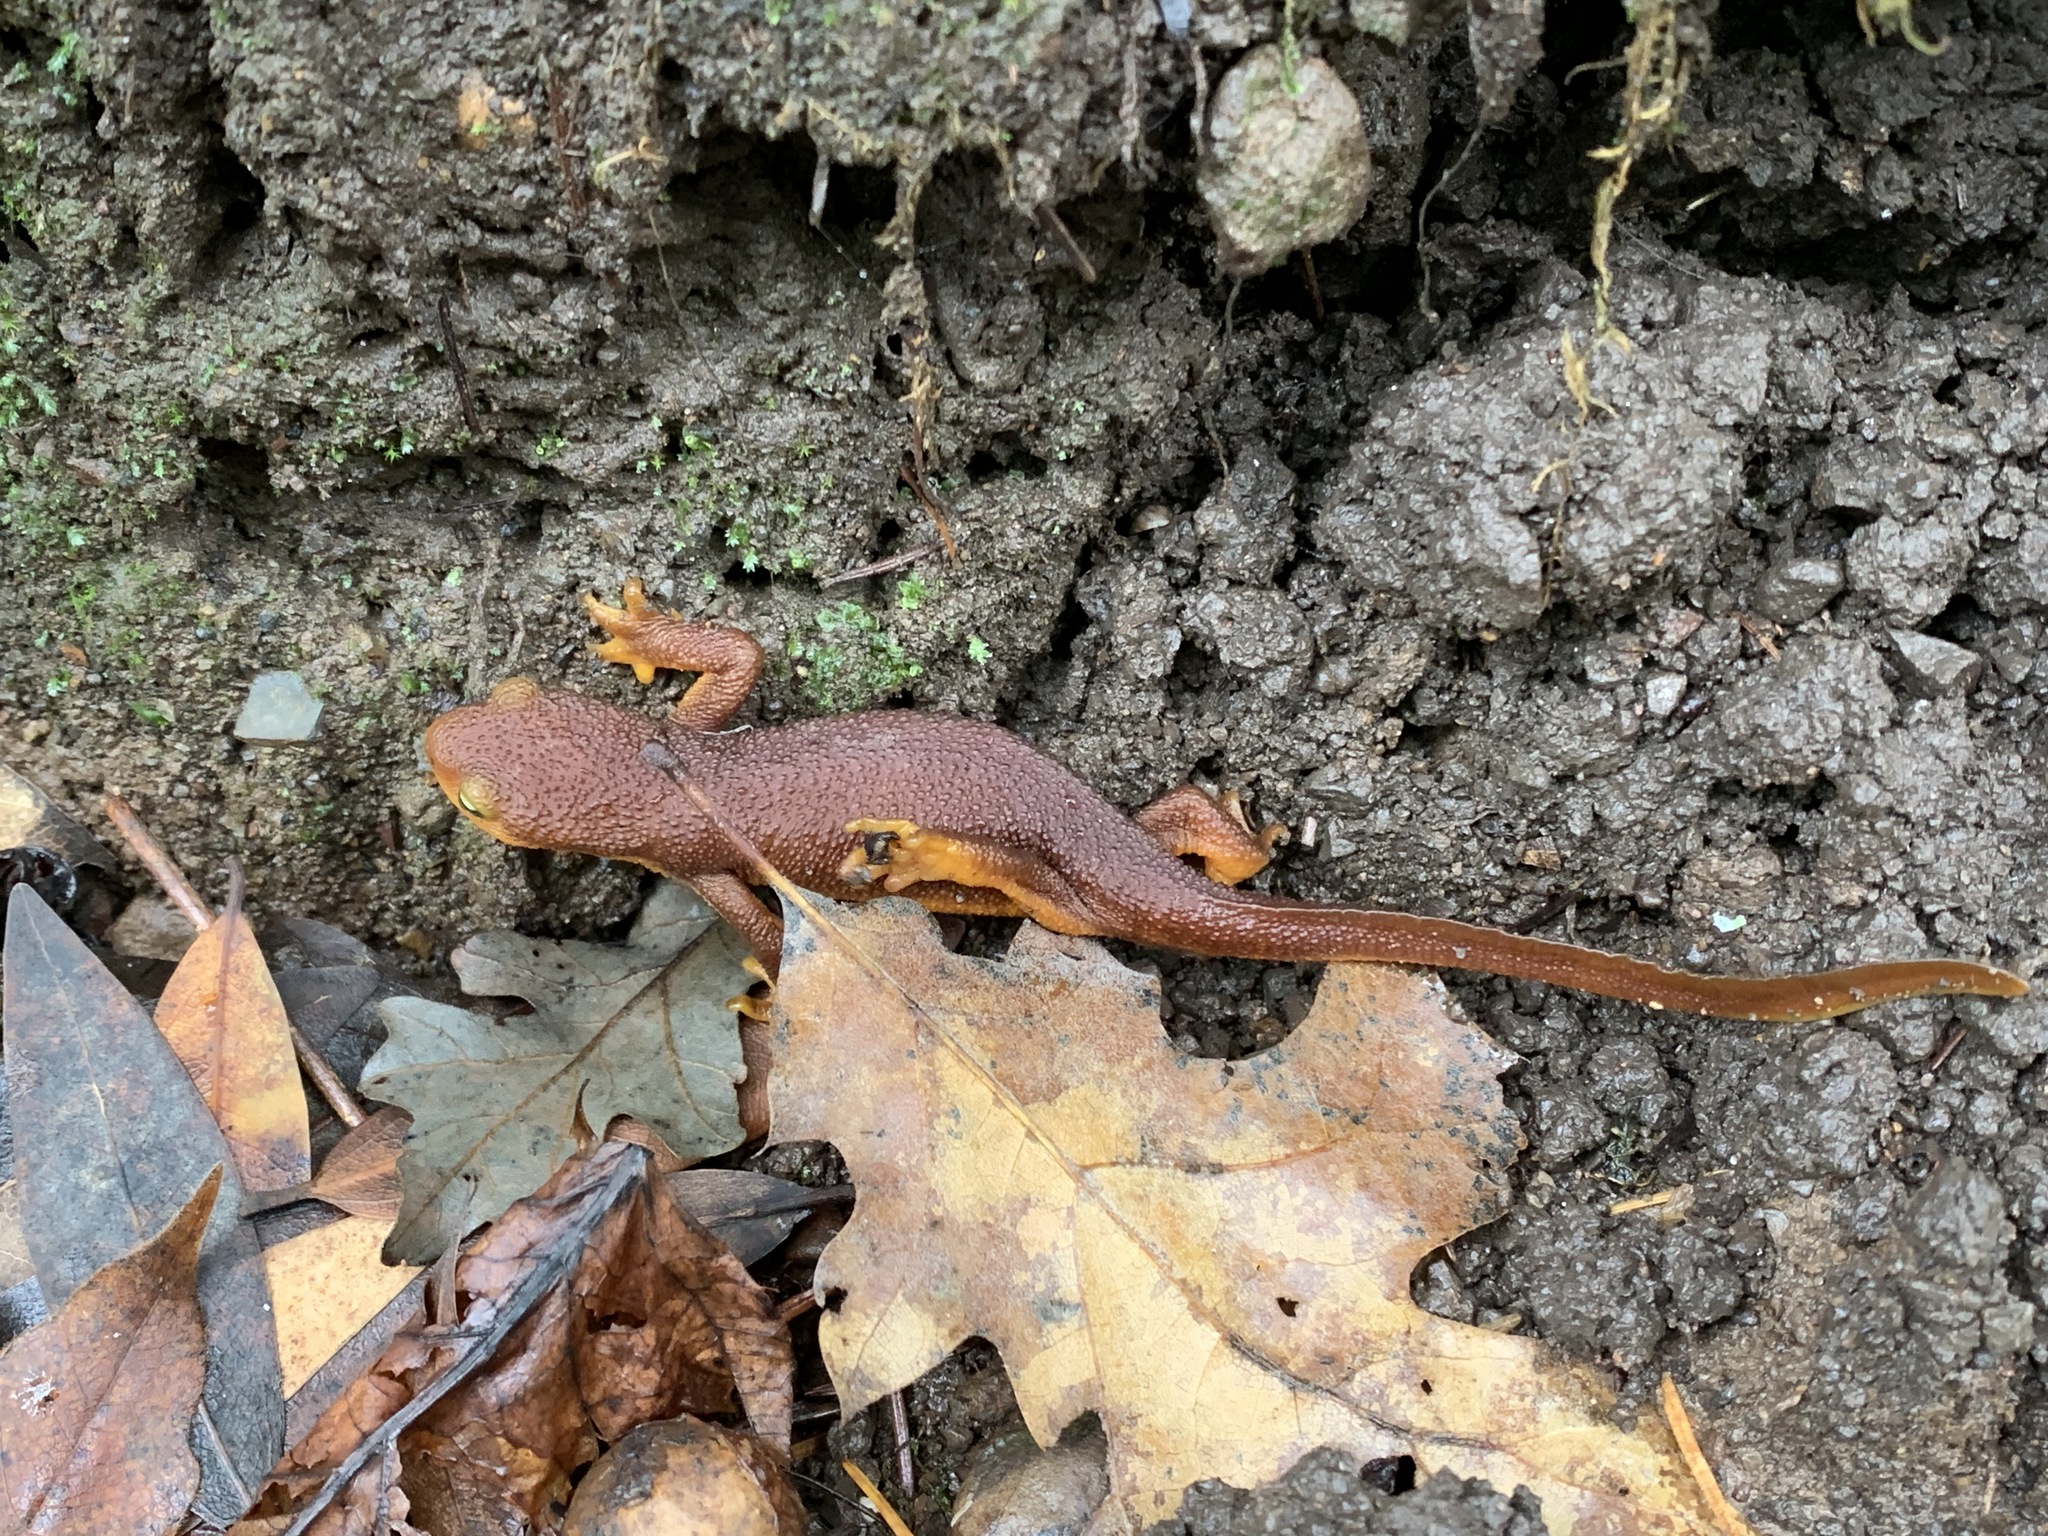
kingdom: Animalia
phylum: Chordata
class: Amphibia
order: Caudata
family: Salamandridae
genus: Taricha
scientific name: Taricha torosa
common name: California newt
